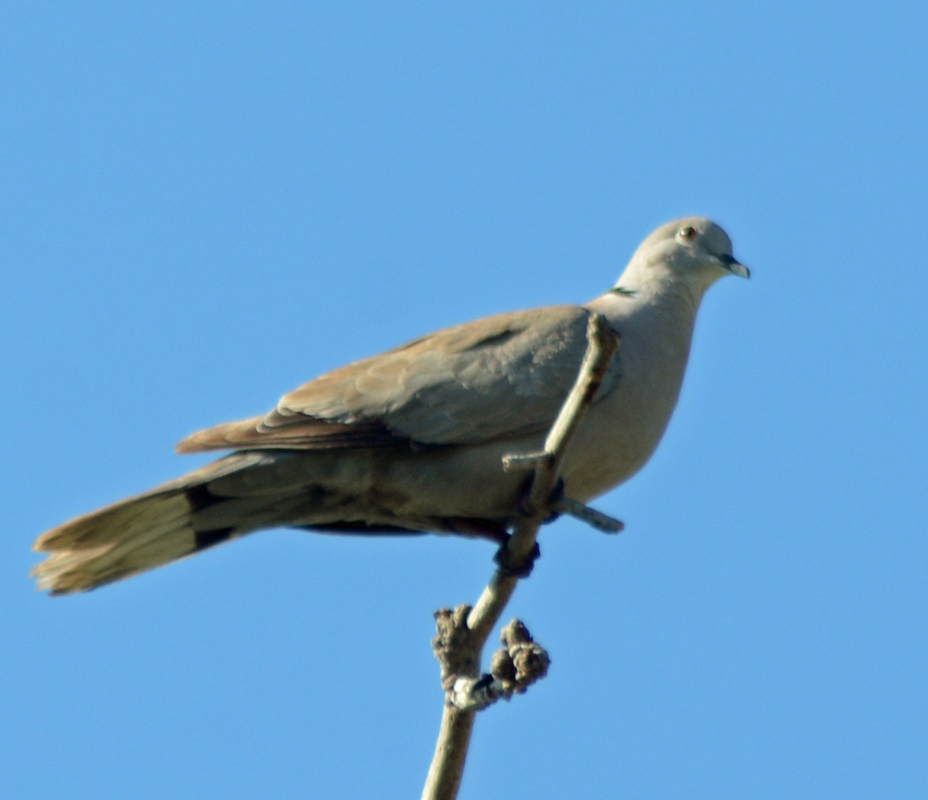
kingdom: Animalia
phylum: Chordata
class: Aves
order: Columbiformes
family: Columbidae
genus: Streptopelia
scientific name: Streptopelia decaocto
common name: Eurasian collared dove
